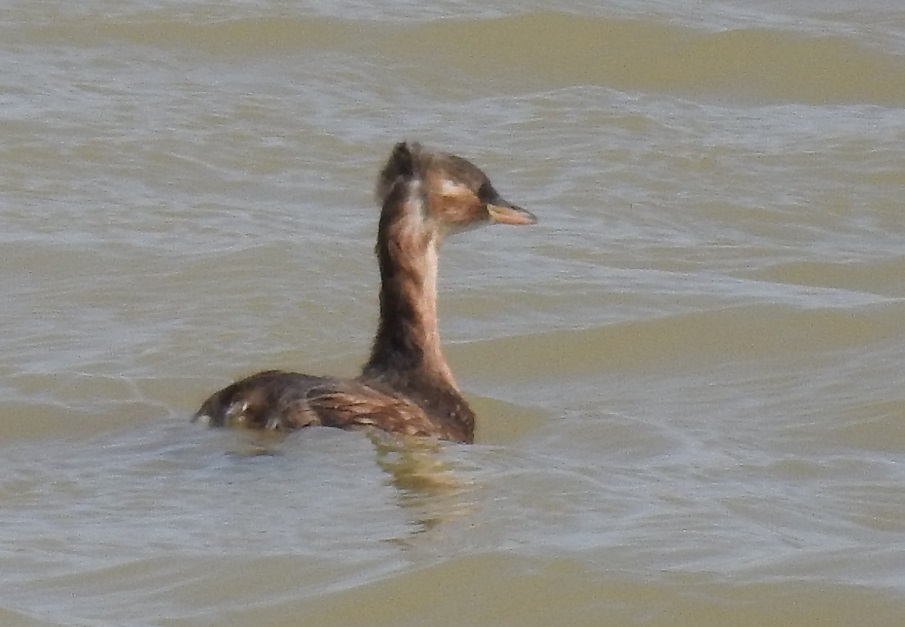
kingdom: Animalia
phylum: Chordata
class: Aves
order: Podicipediformes
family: Podicipedidae
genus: Tachybaptus
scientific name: Tachybaptus ruficollis
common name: Little grebe
